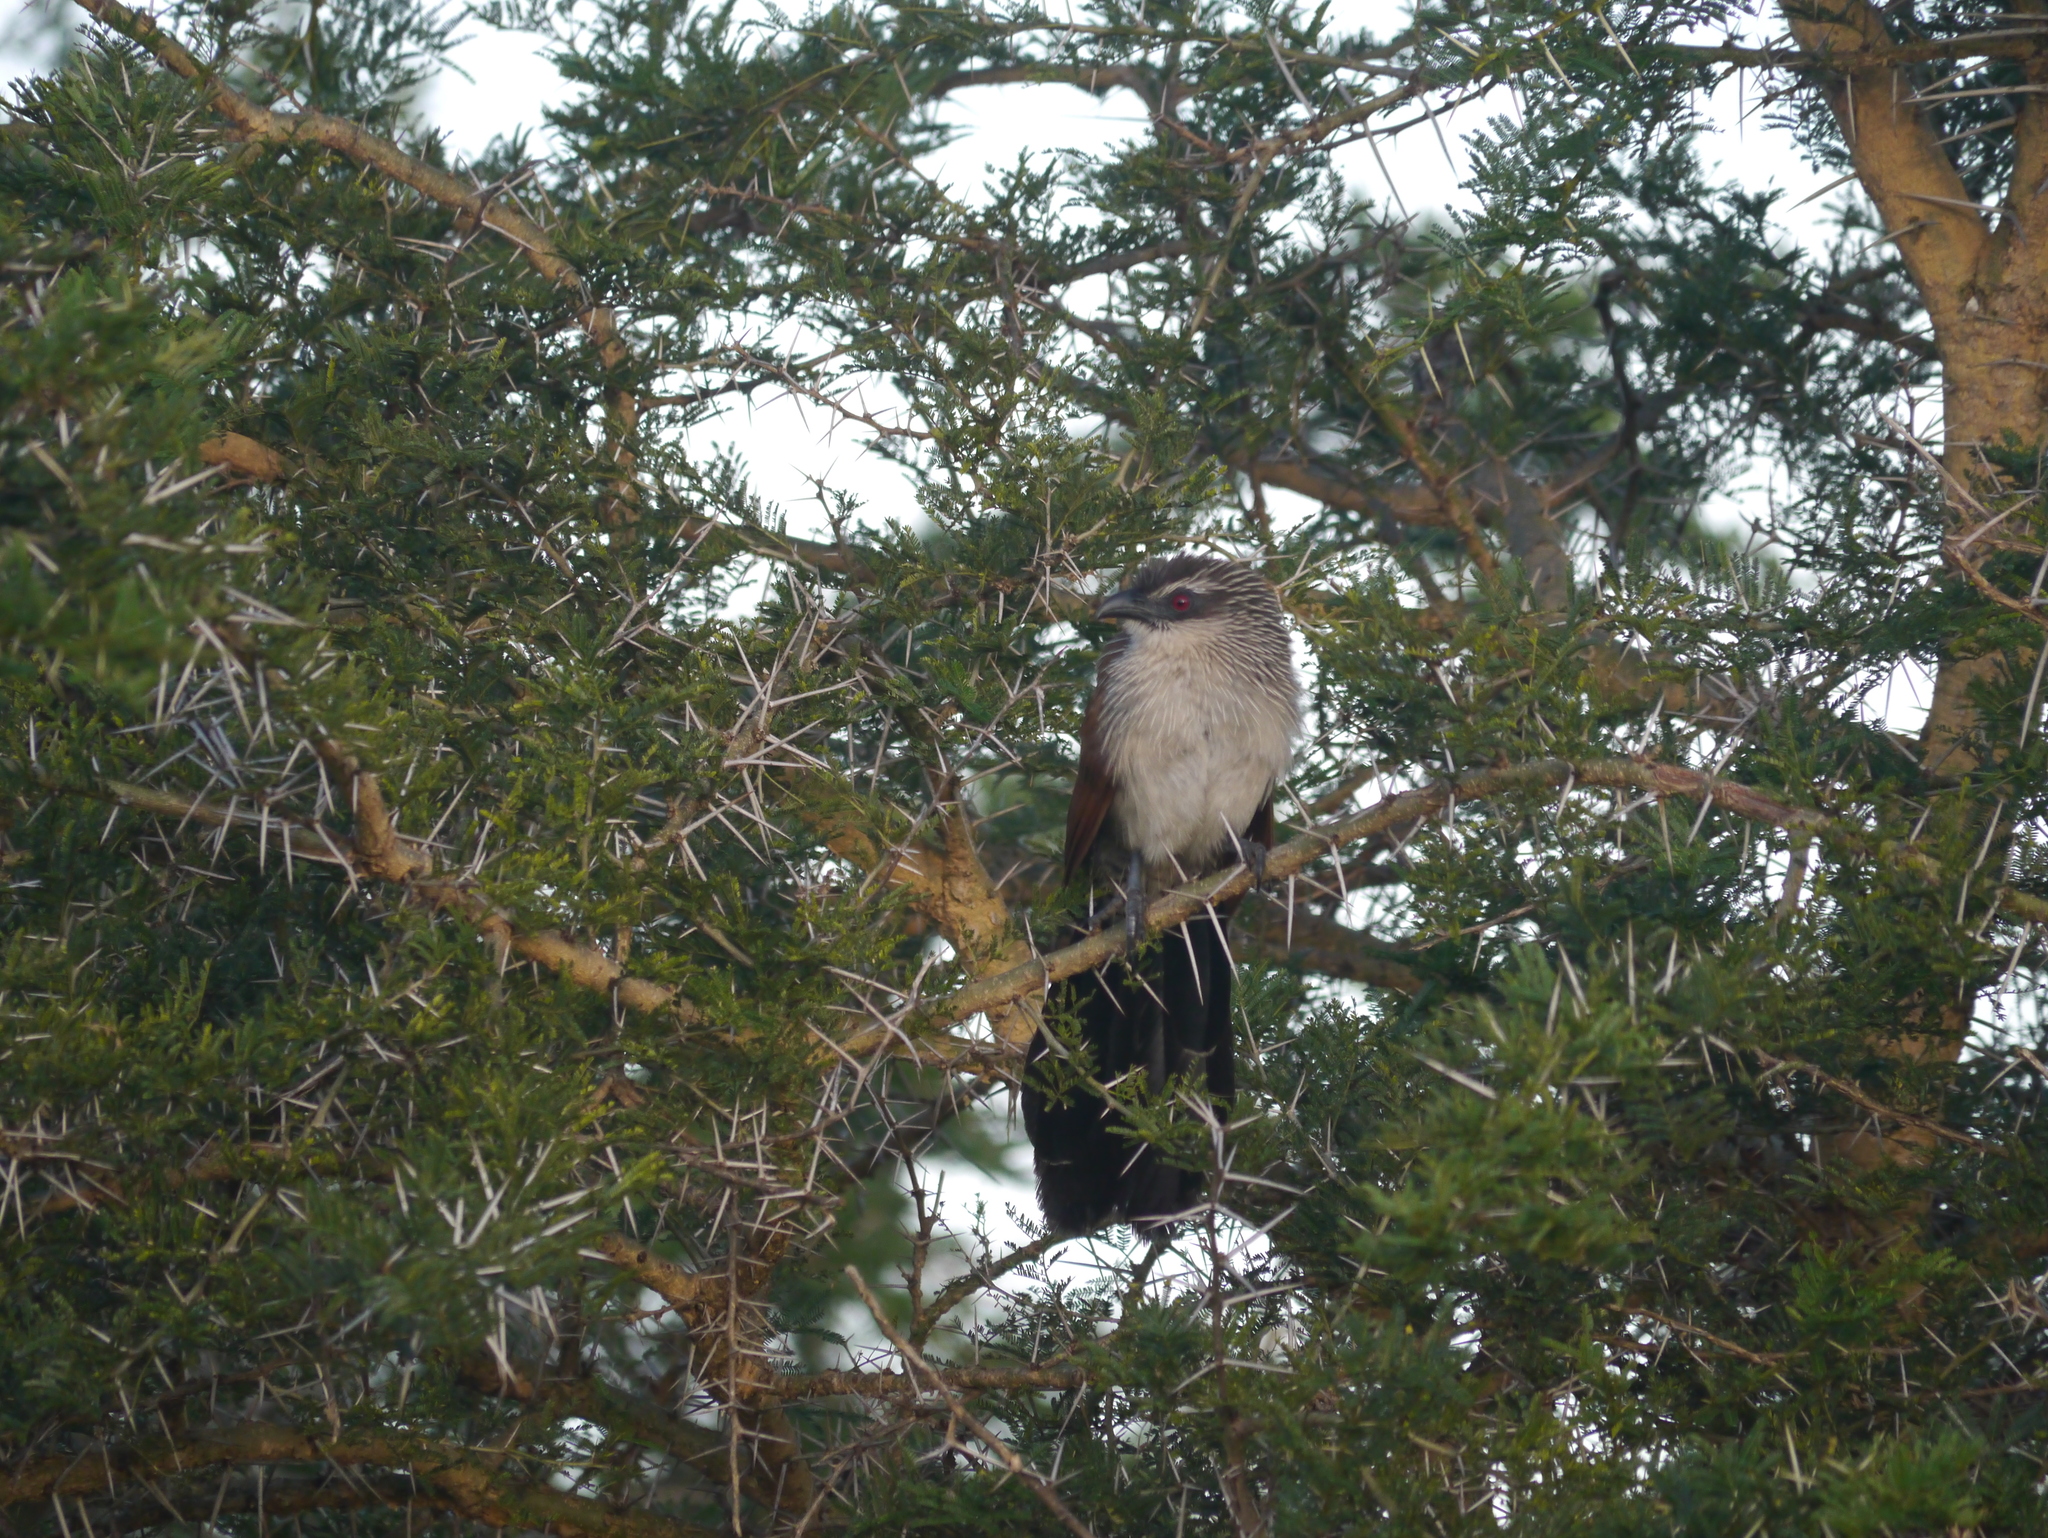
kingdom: Animalia
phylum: Chordata
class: Aves
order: Cuculiformes
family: Cuculidae
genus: Centropus
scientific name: Centropus superciliosus
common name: White-browed coucal
